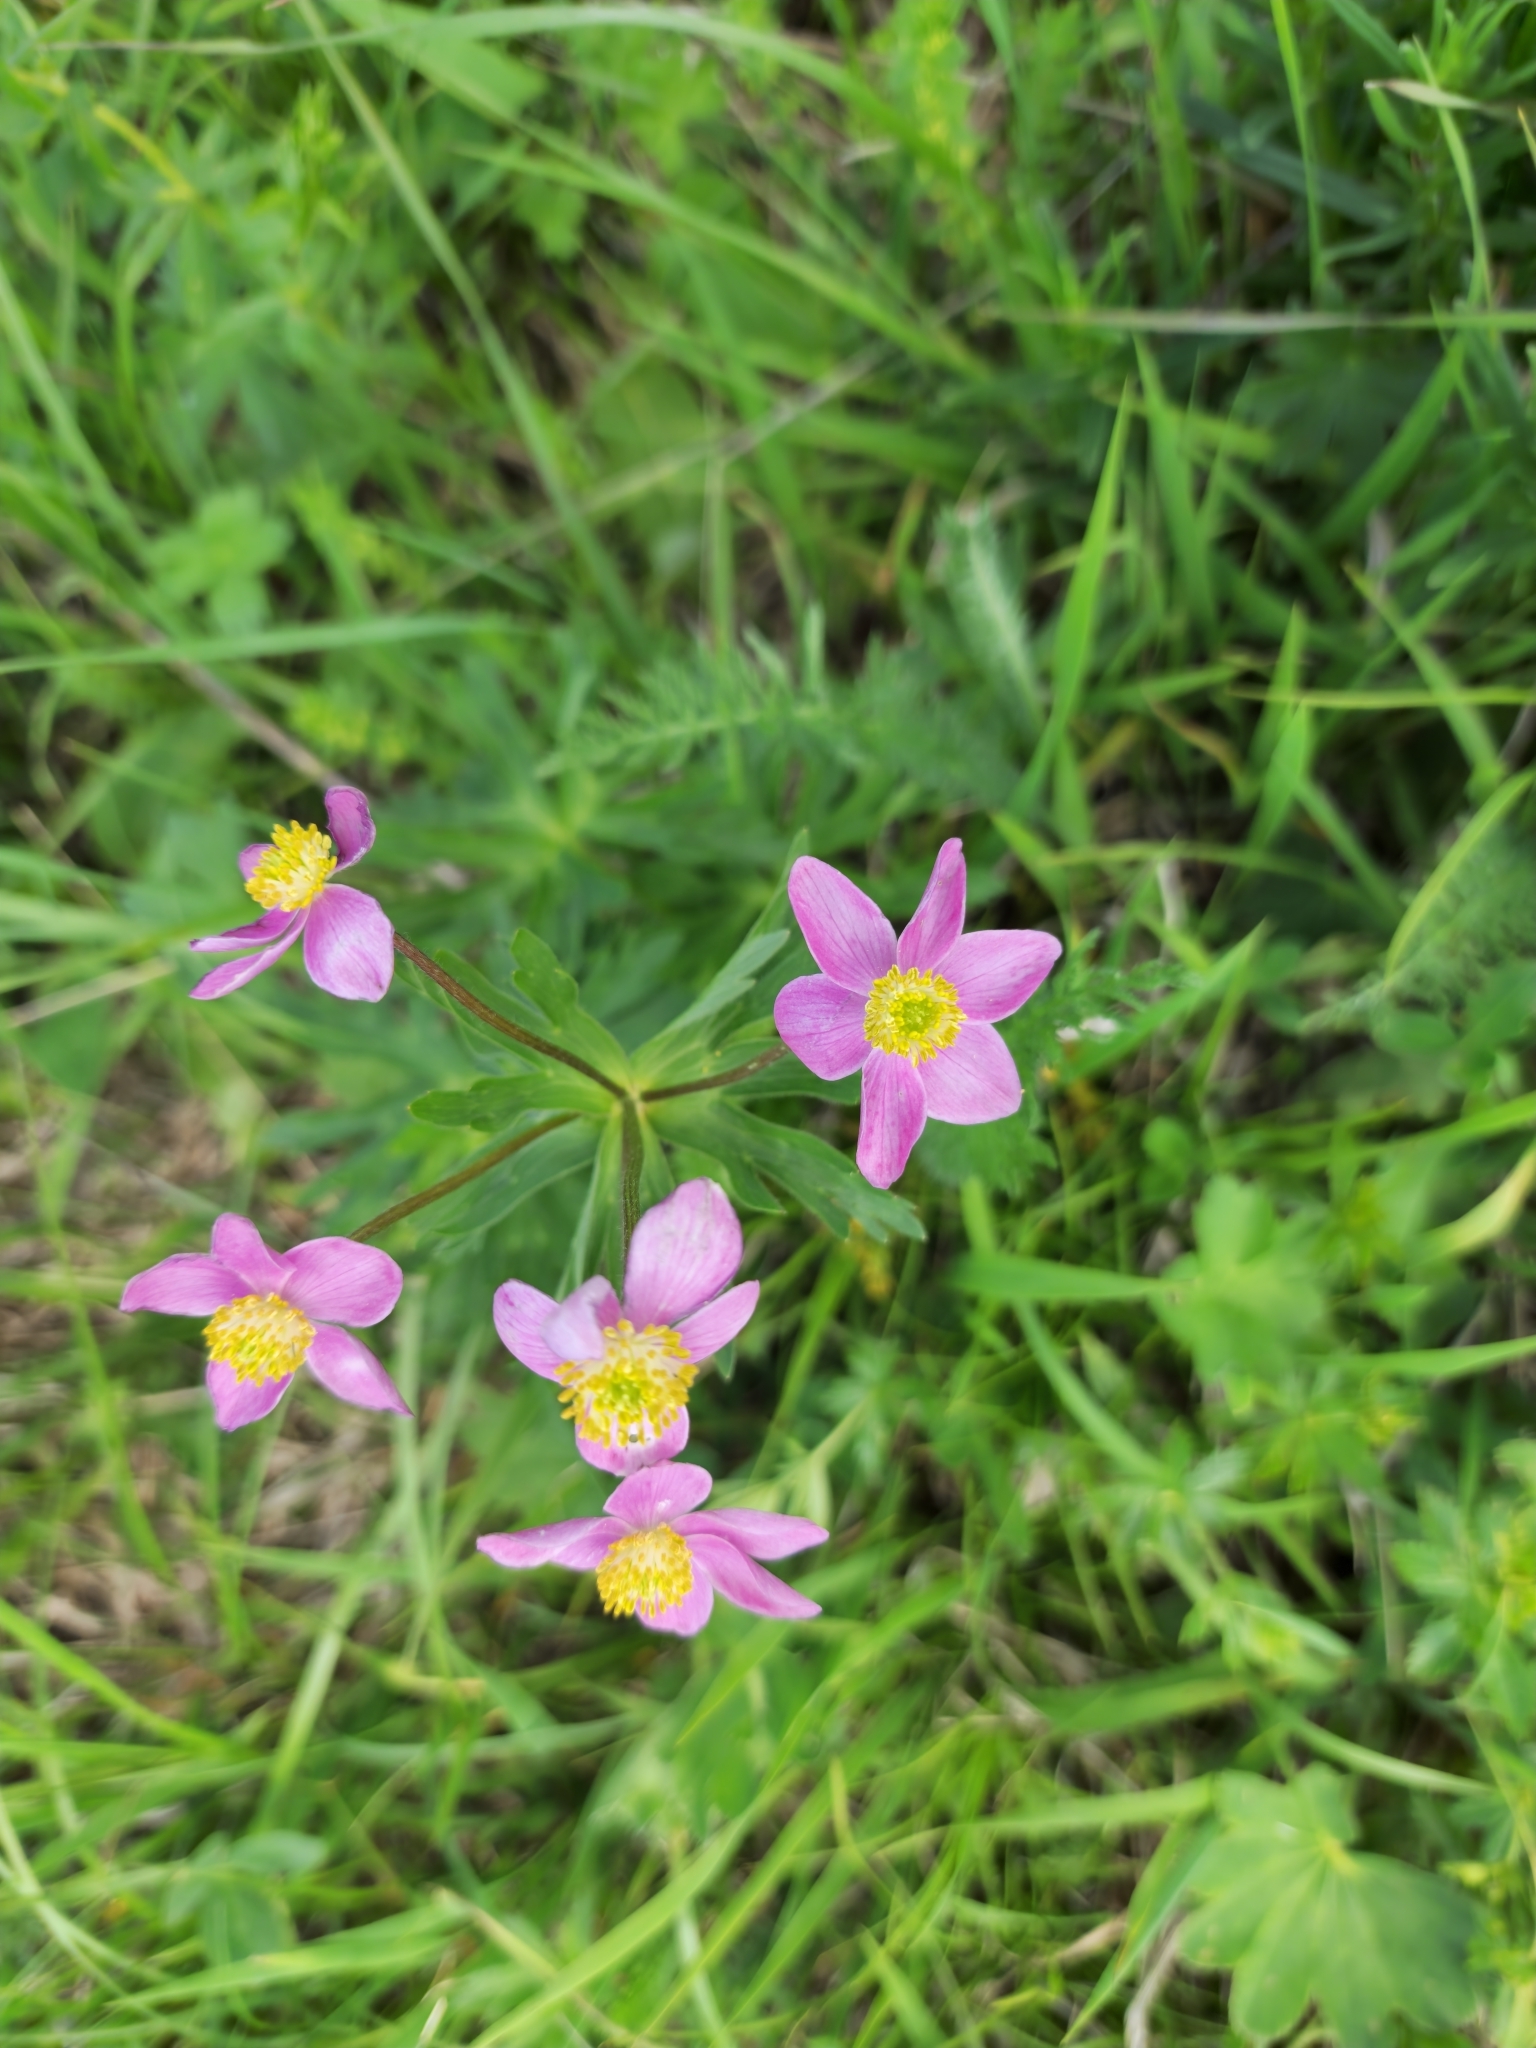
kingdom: Plantae
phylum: Tracheophyta
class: Magnoliopsida
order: Ranunculales
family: Ranunculaceae
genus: Anemonastrum
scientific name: Anemonastrum narcissiflorum
